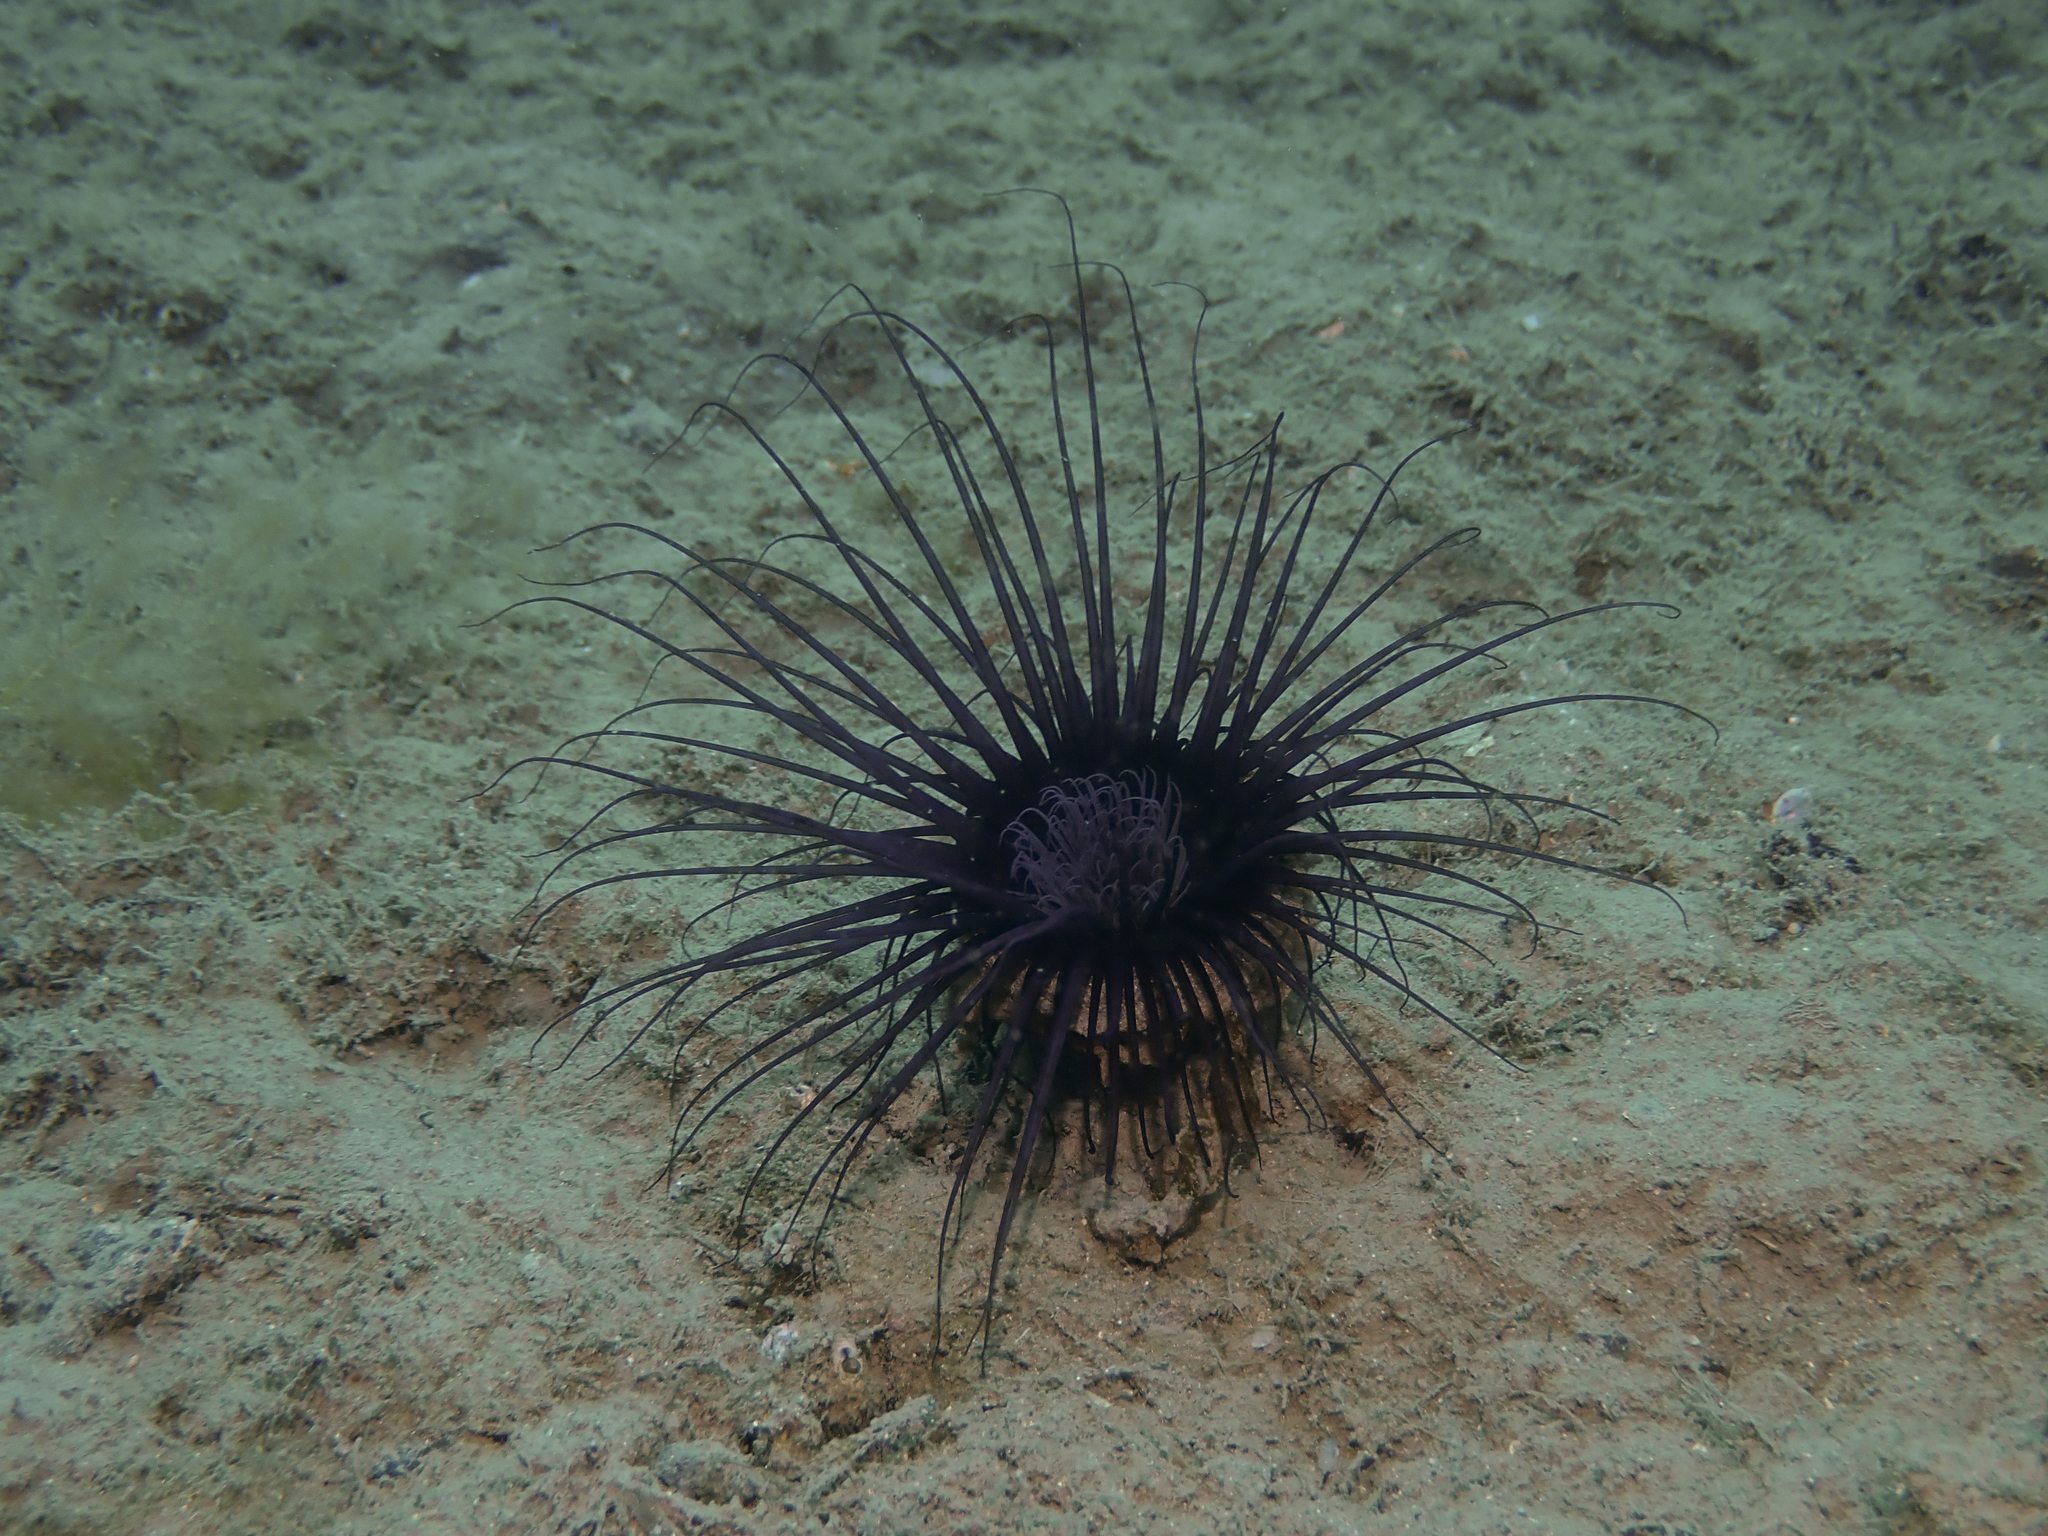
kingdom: Animalia
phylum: Cnidaria
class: Anthozoa
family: Cerianthidae
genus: Cerianthus
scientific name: Cerianthus membranaceus
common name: Cylinder anemone
